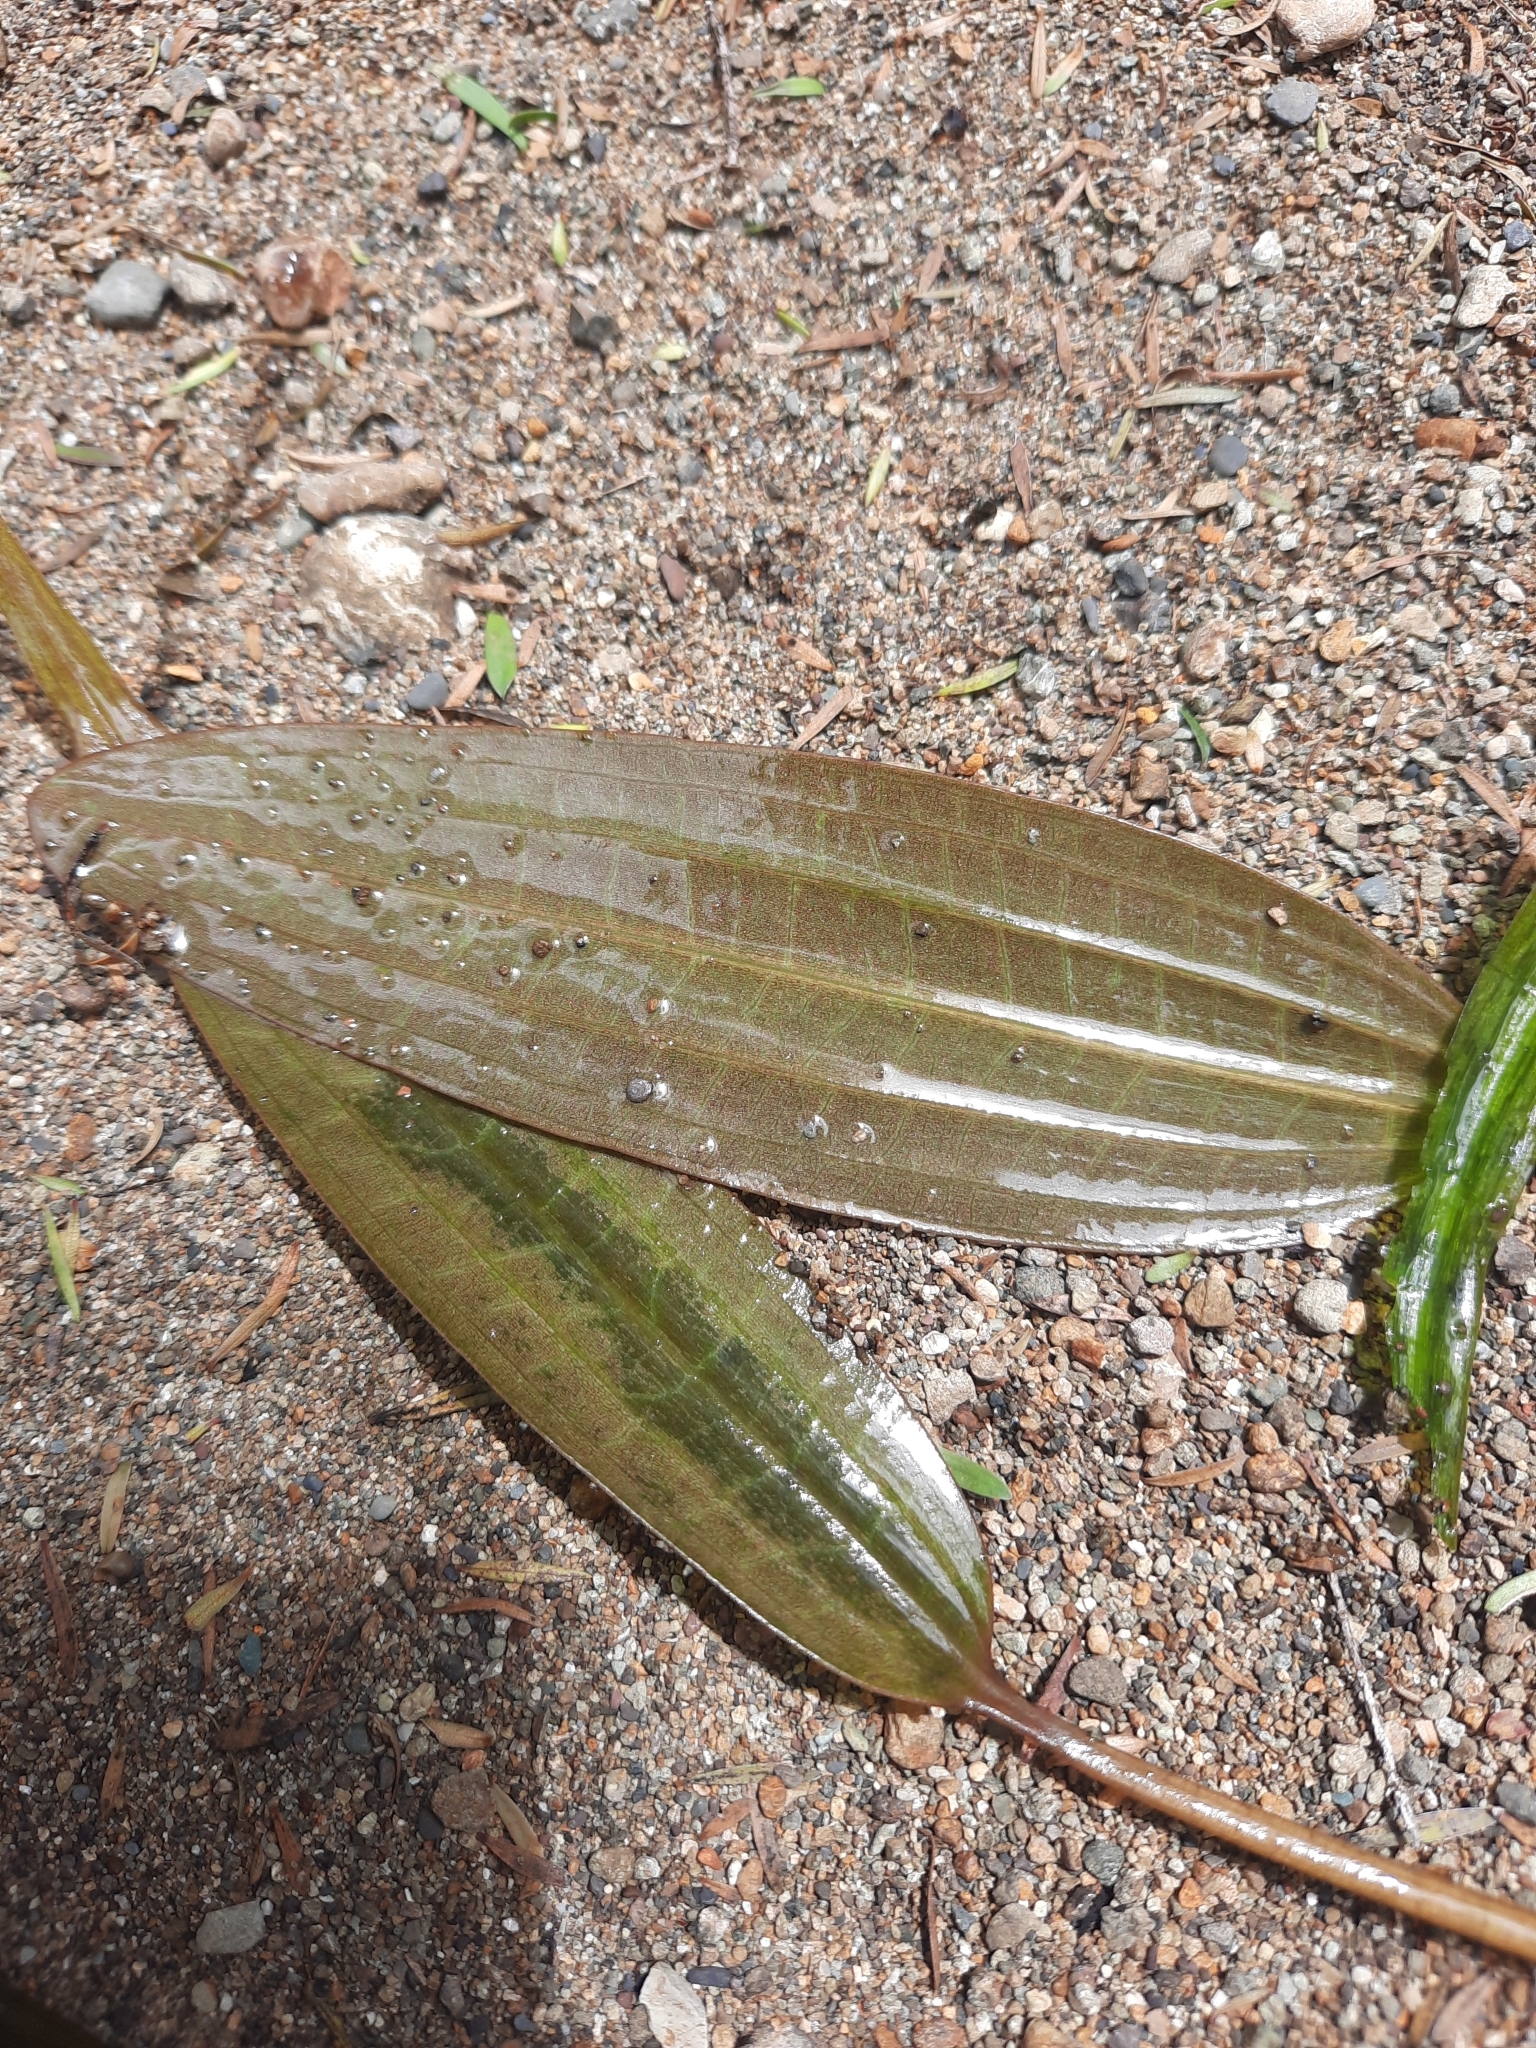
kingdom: Plantae
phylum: Tracheophyta
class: Liliopsida
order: Alismatales
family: Potamogetonaceae
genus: Potamogeton
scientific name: Potamogeton cheesemanii
